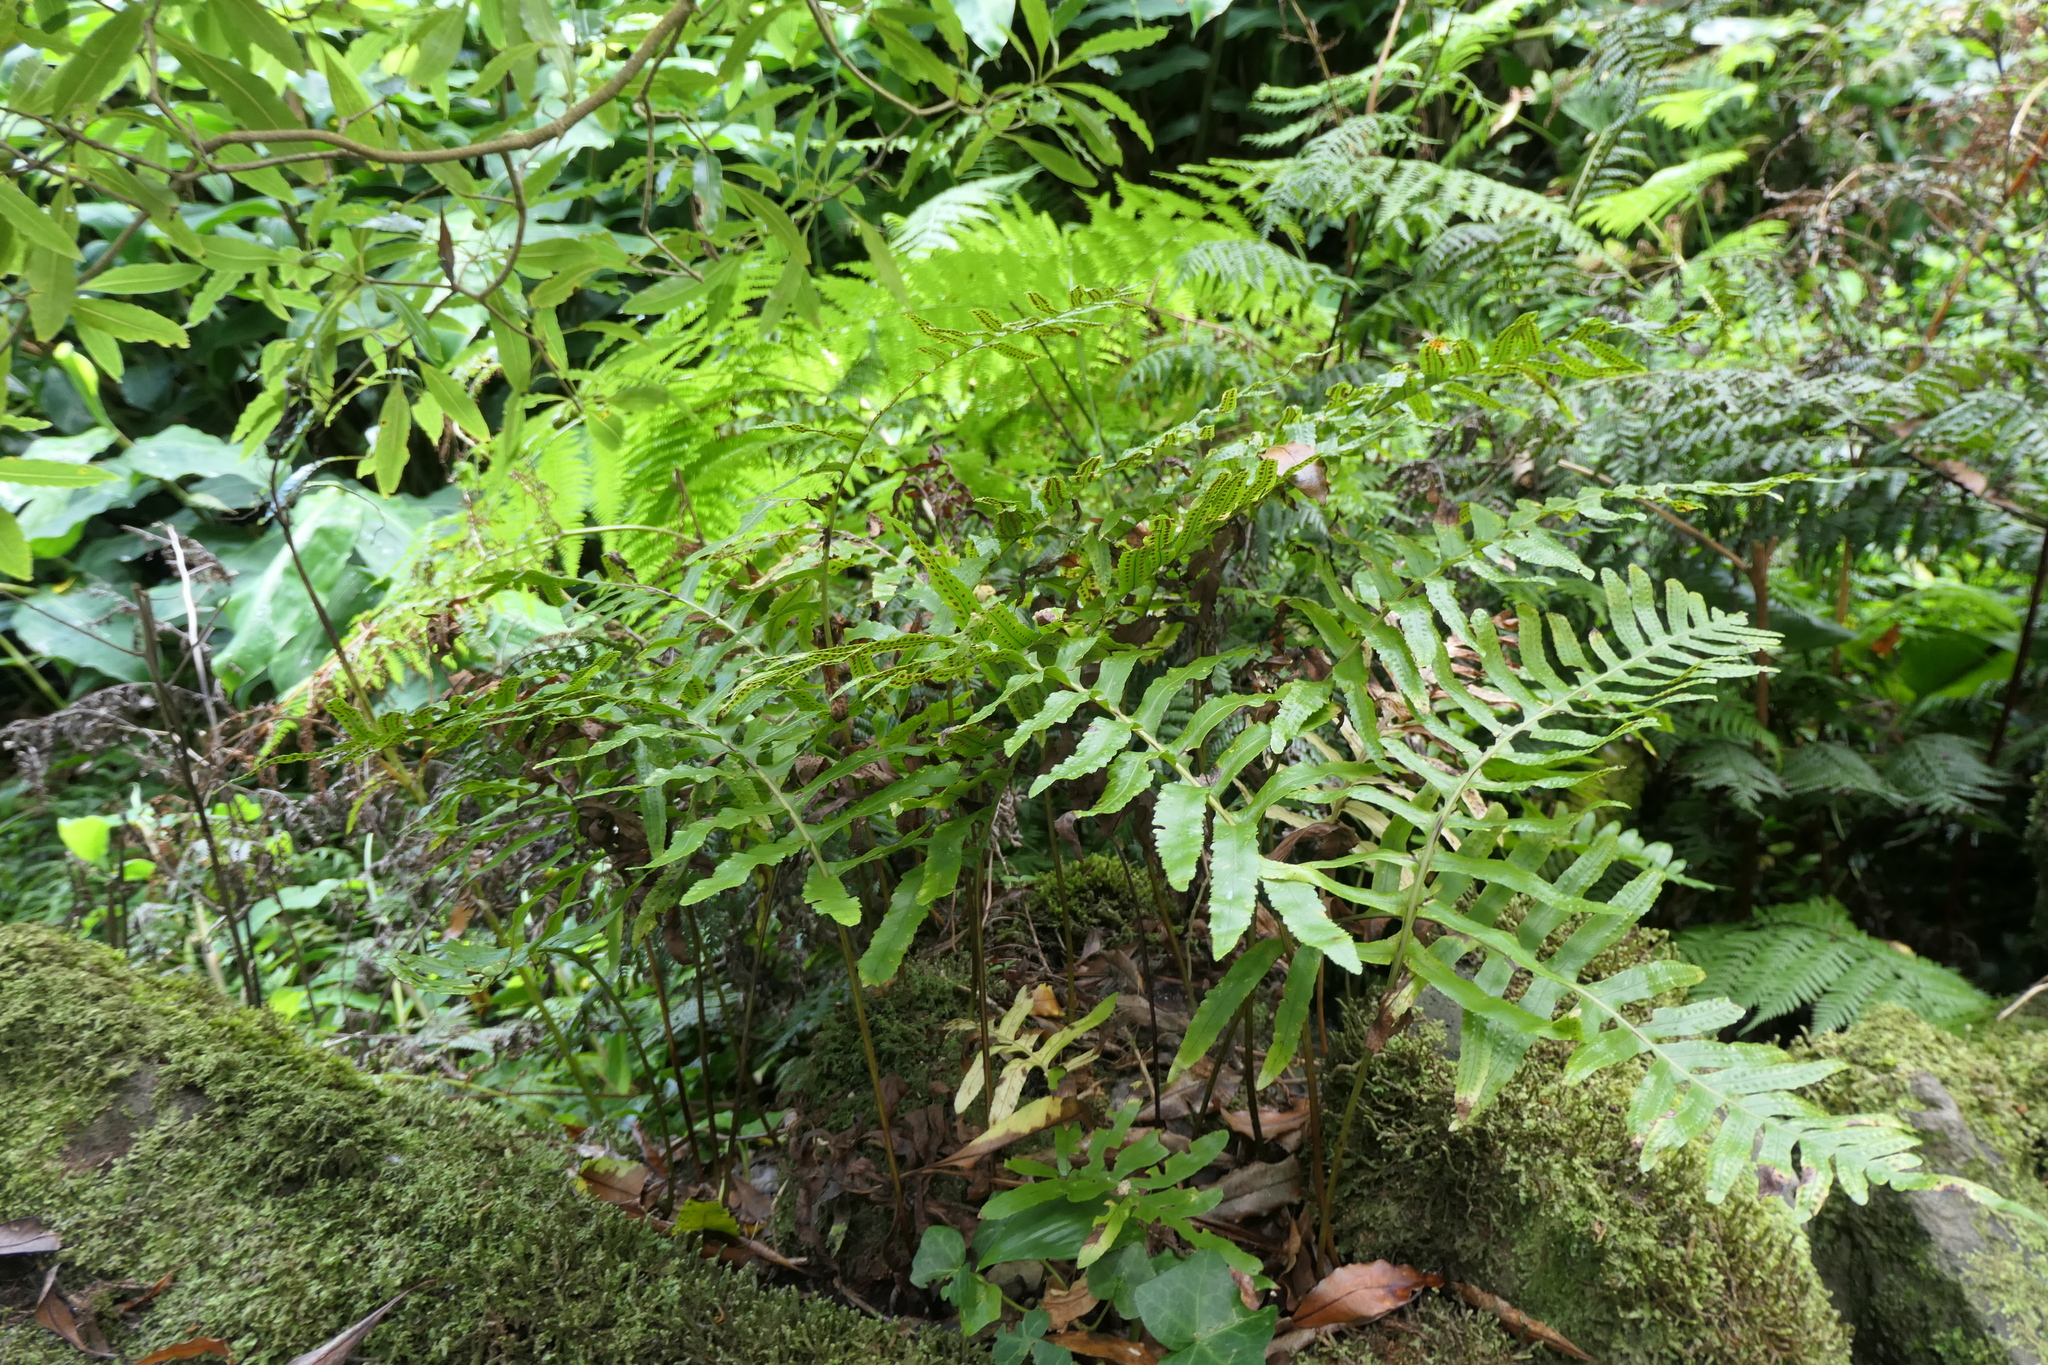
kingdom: Plantae
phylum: Tracheophyta
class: Polypodiopsida
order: Polypodiales
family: Polypodiaceae
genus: Polypodium
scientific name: Polypodium macaronesicum
